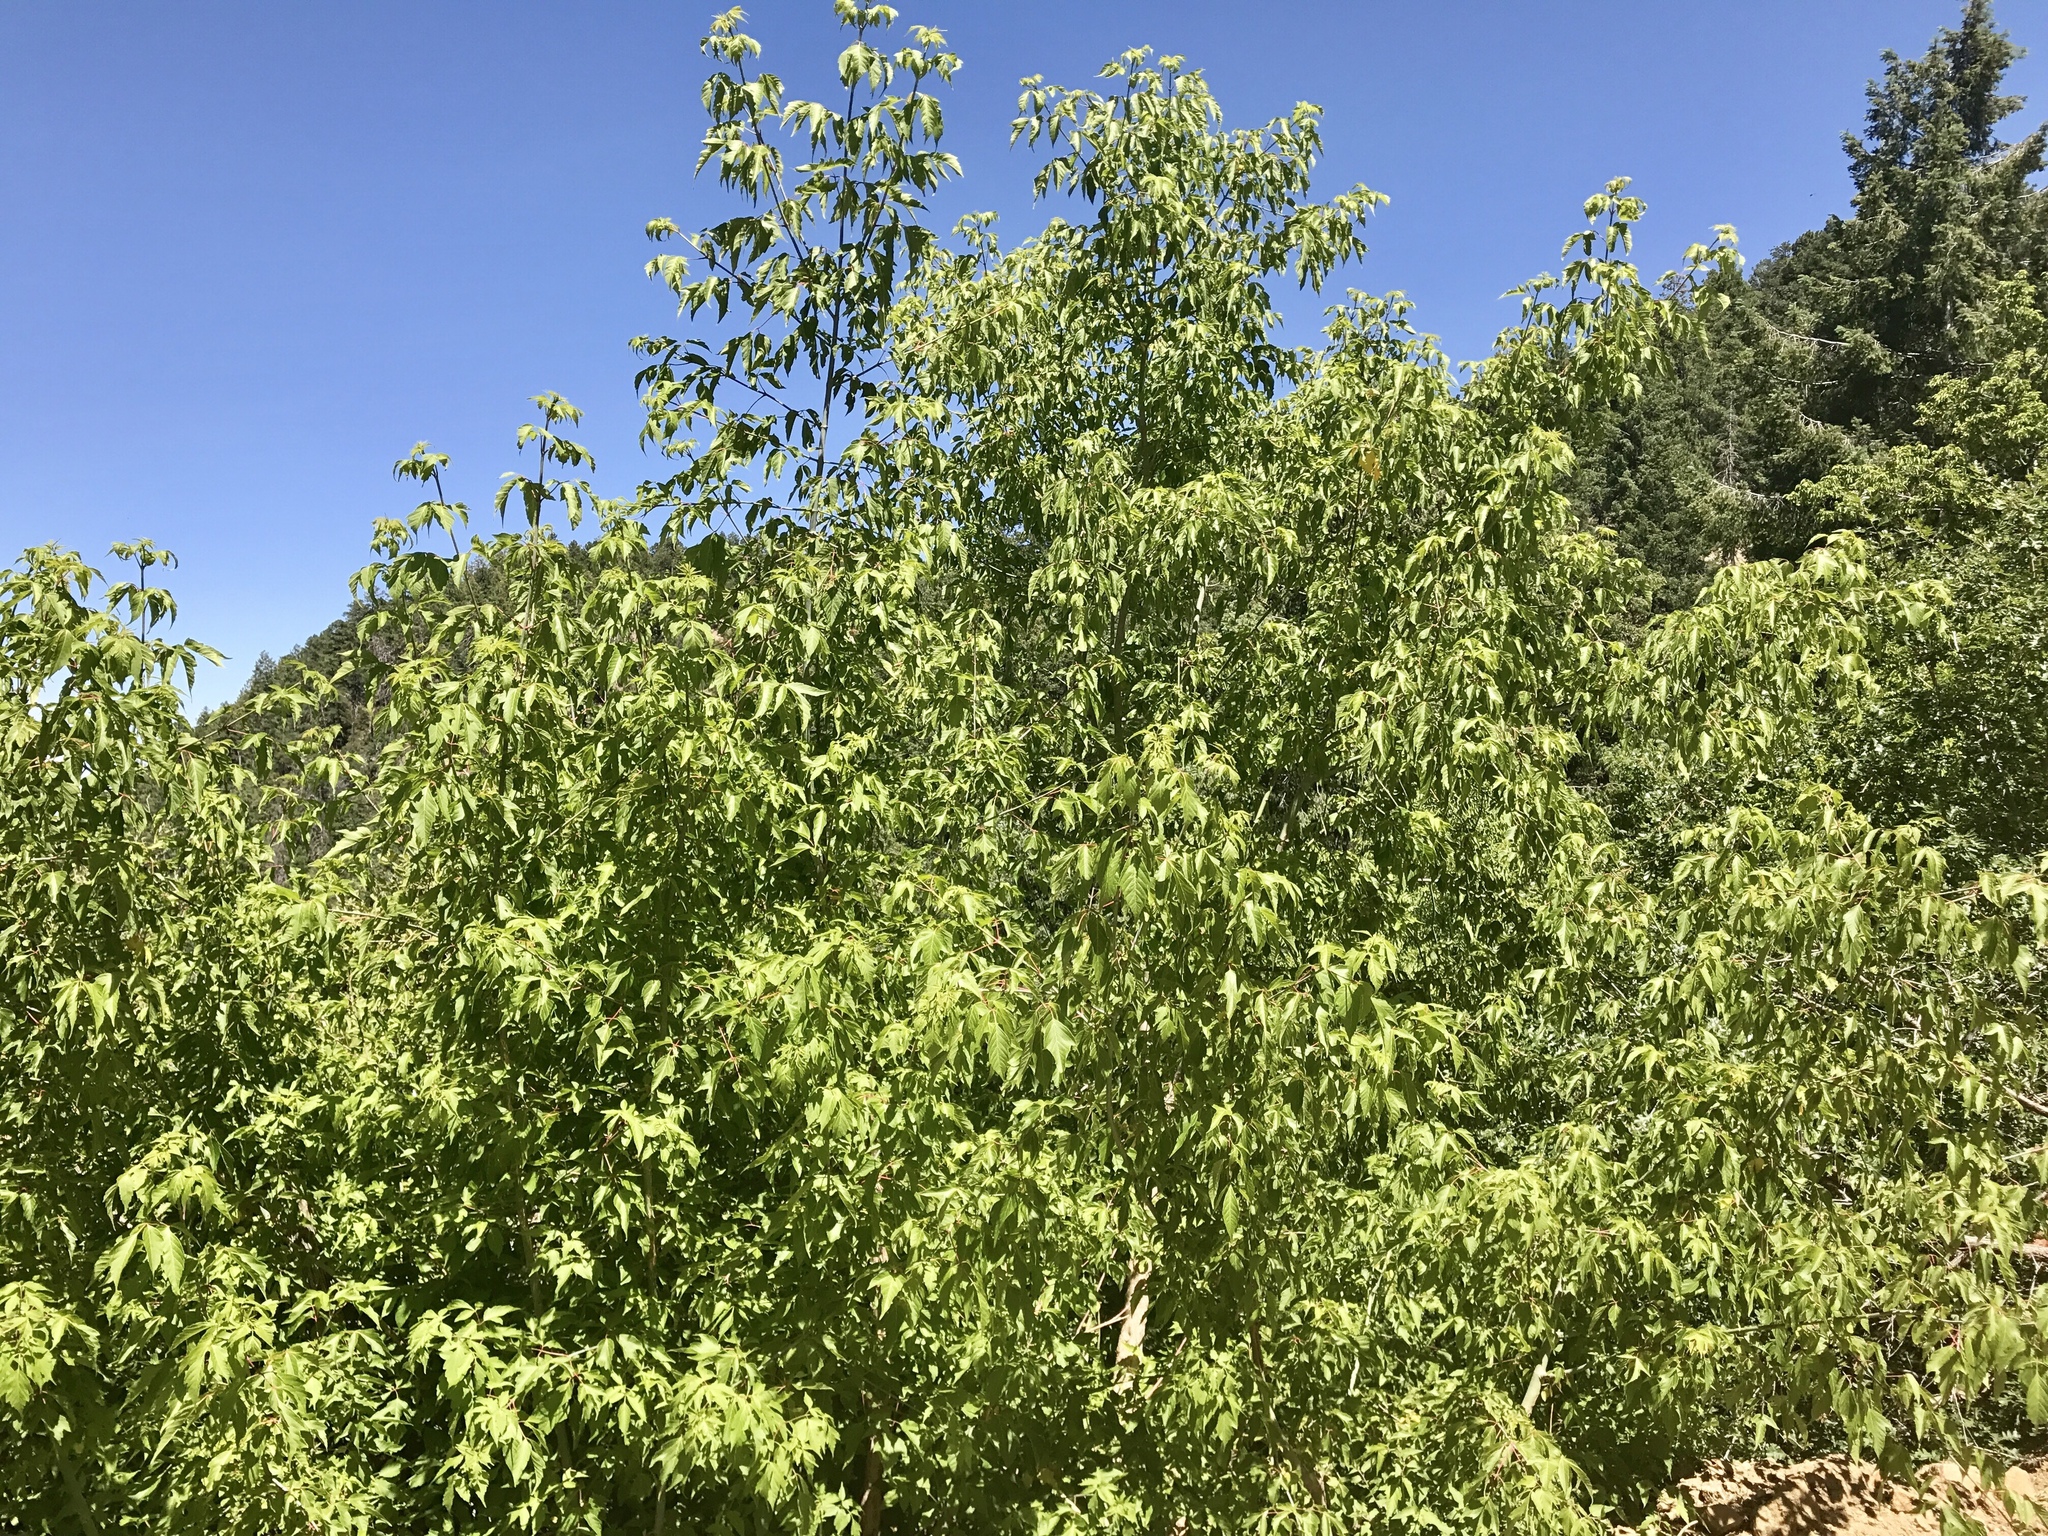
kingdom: Plantae
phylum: Tracheophyta
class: Magnoliopsida
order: Sapindales
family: Sapindaceae
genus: Acer
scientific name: Acer negundo
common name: Ashleaf maple
